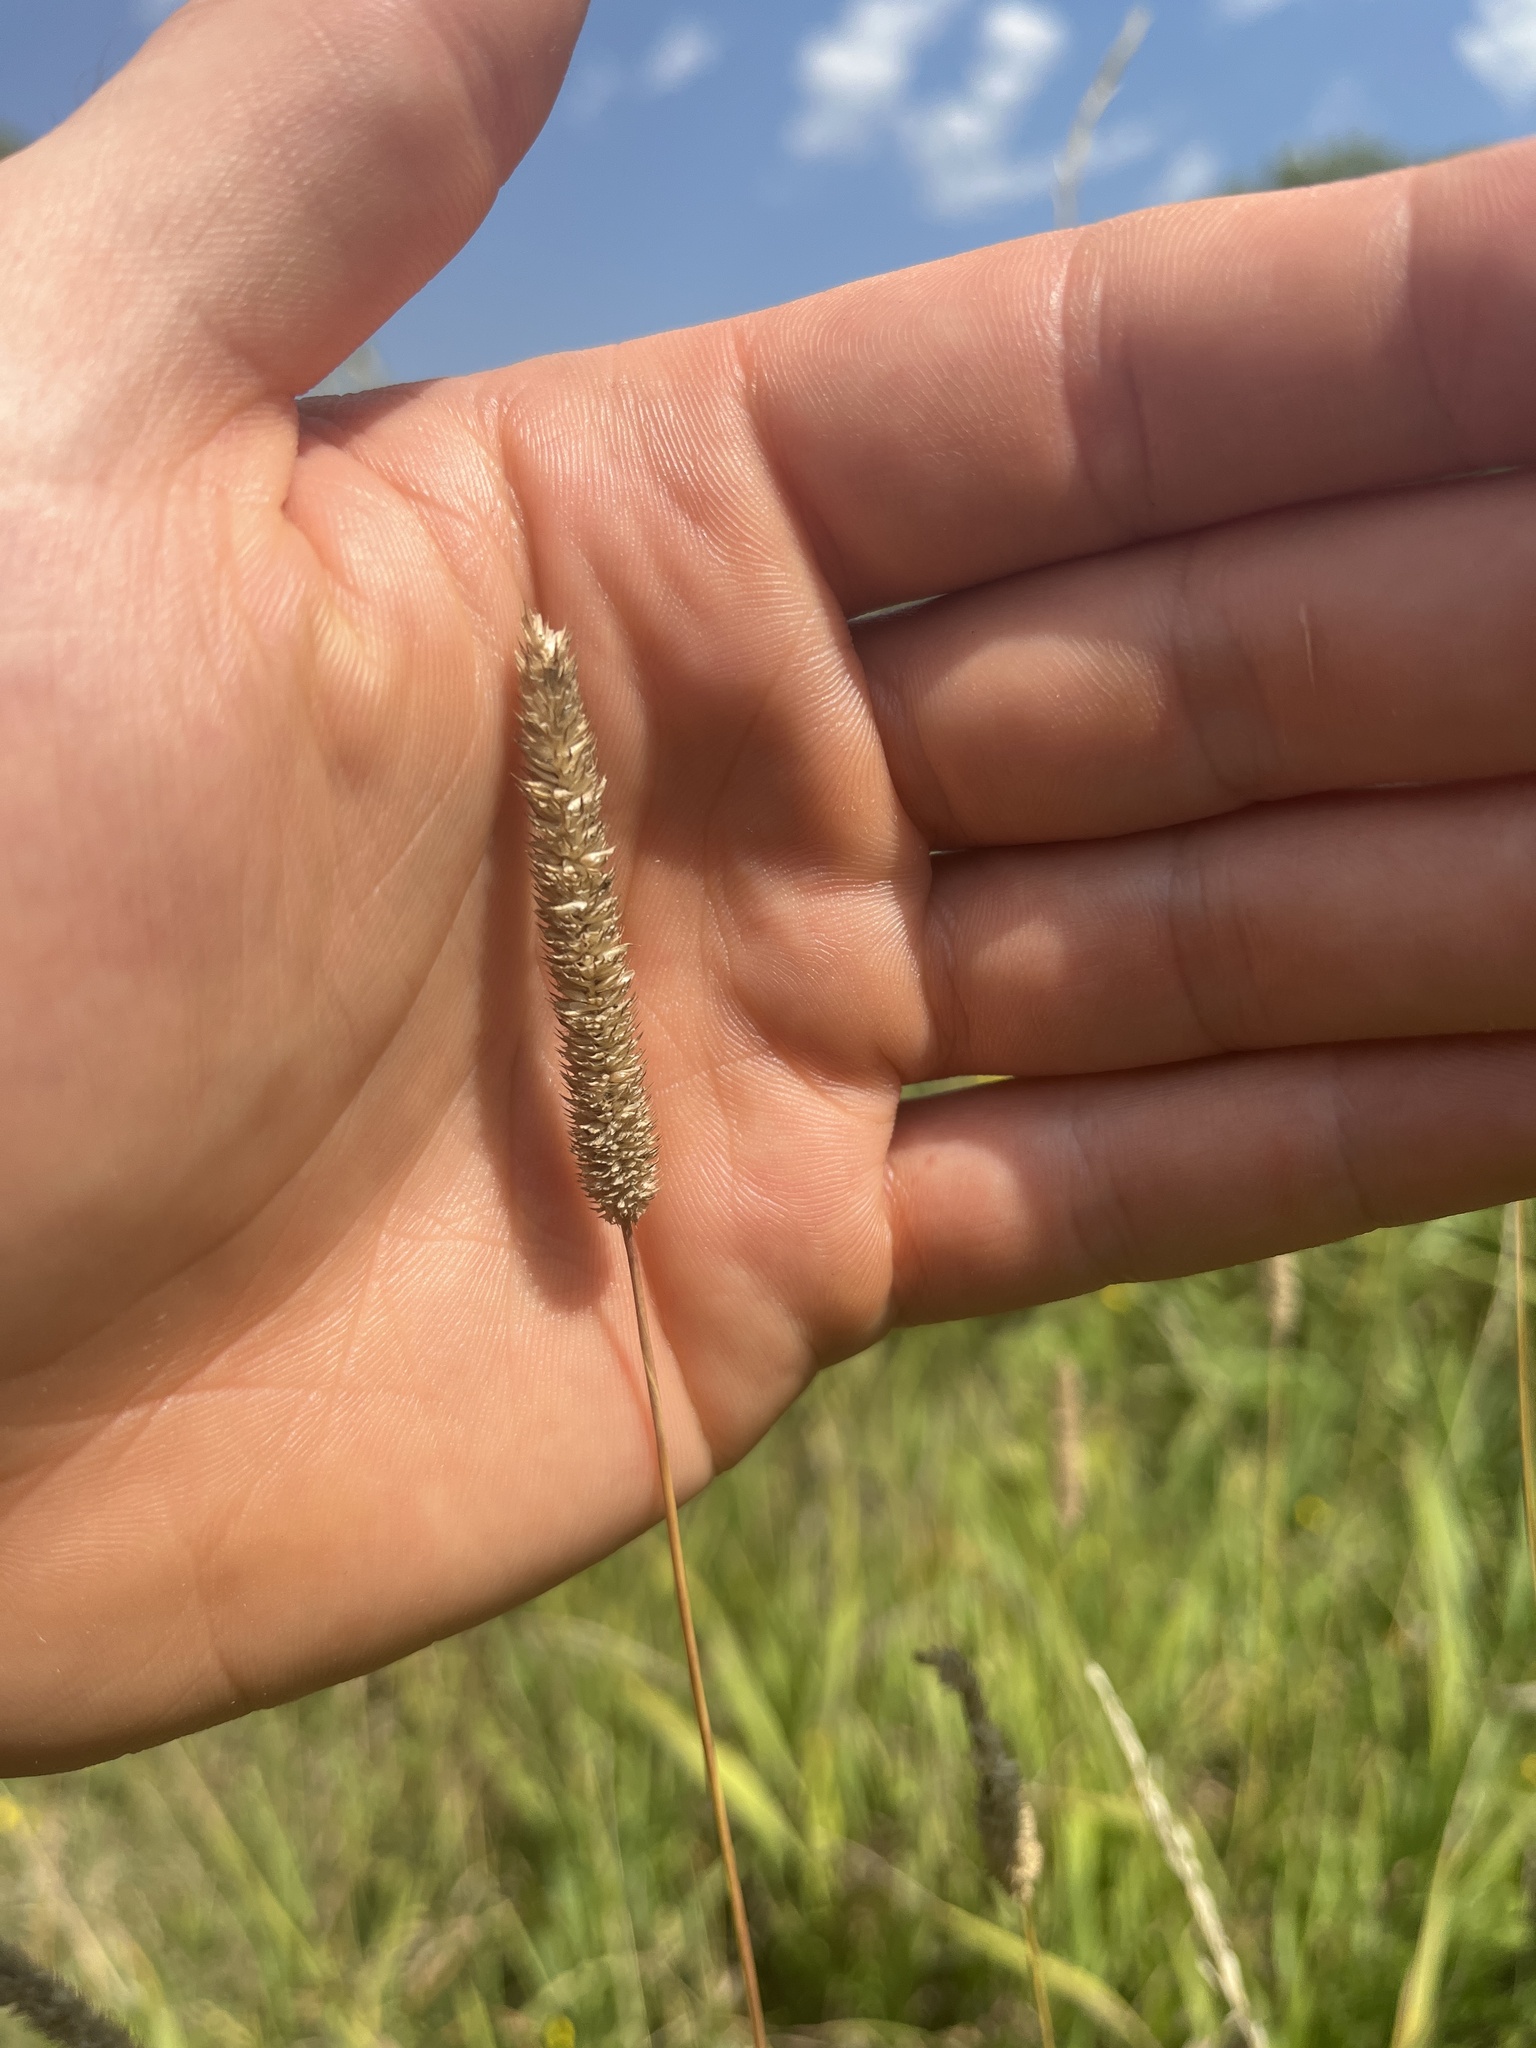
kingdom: Plantae
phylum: Tracheophyta
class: Liliopsida
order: Poales
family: Poaceae
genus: Phleum
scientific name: Phleum pratense
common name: Timothy grass
